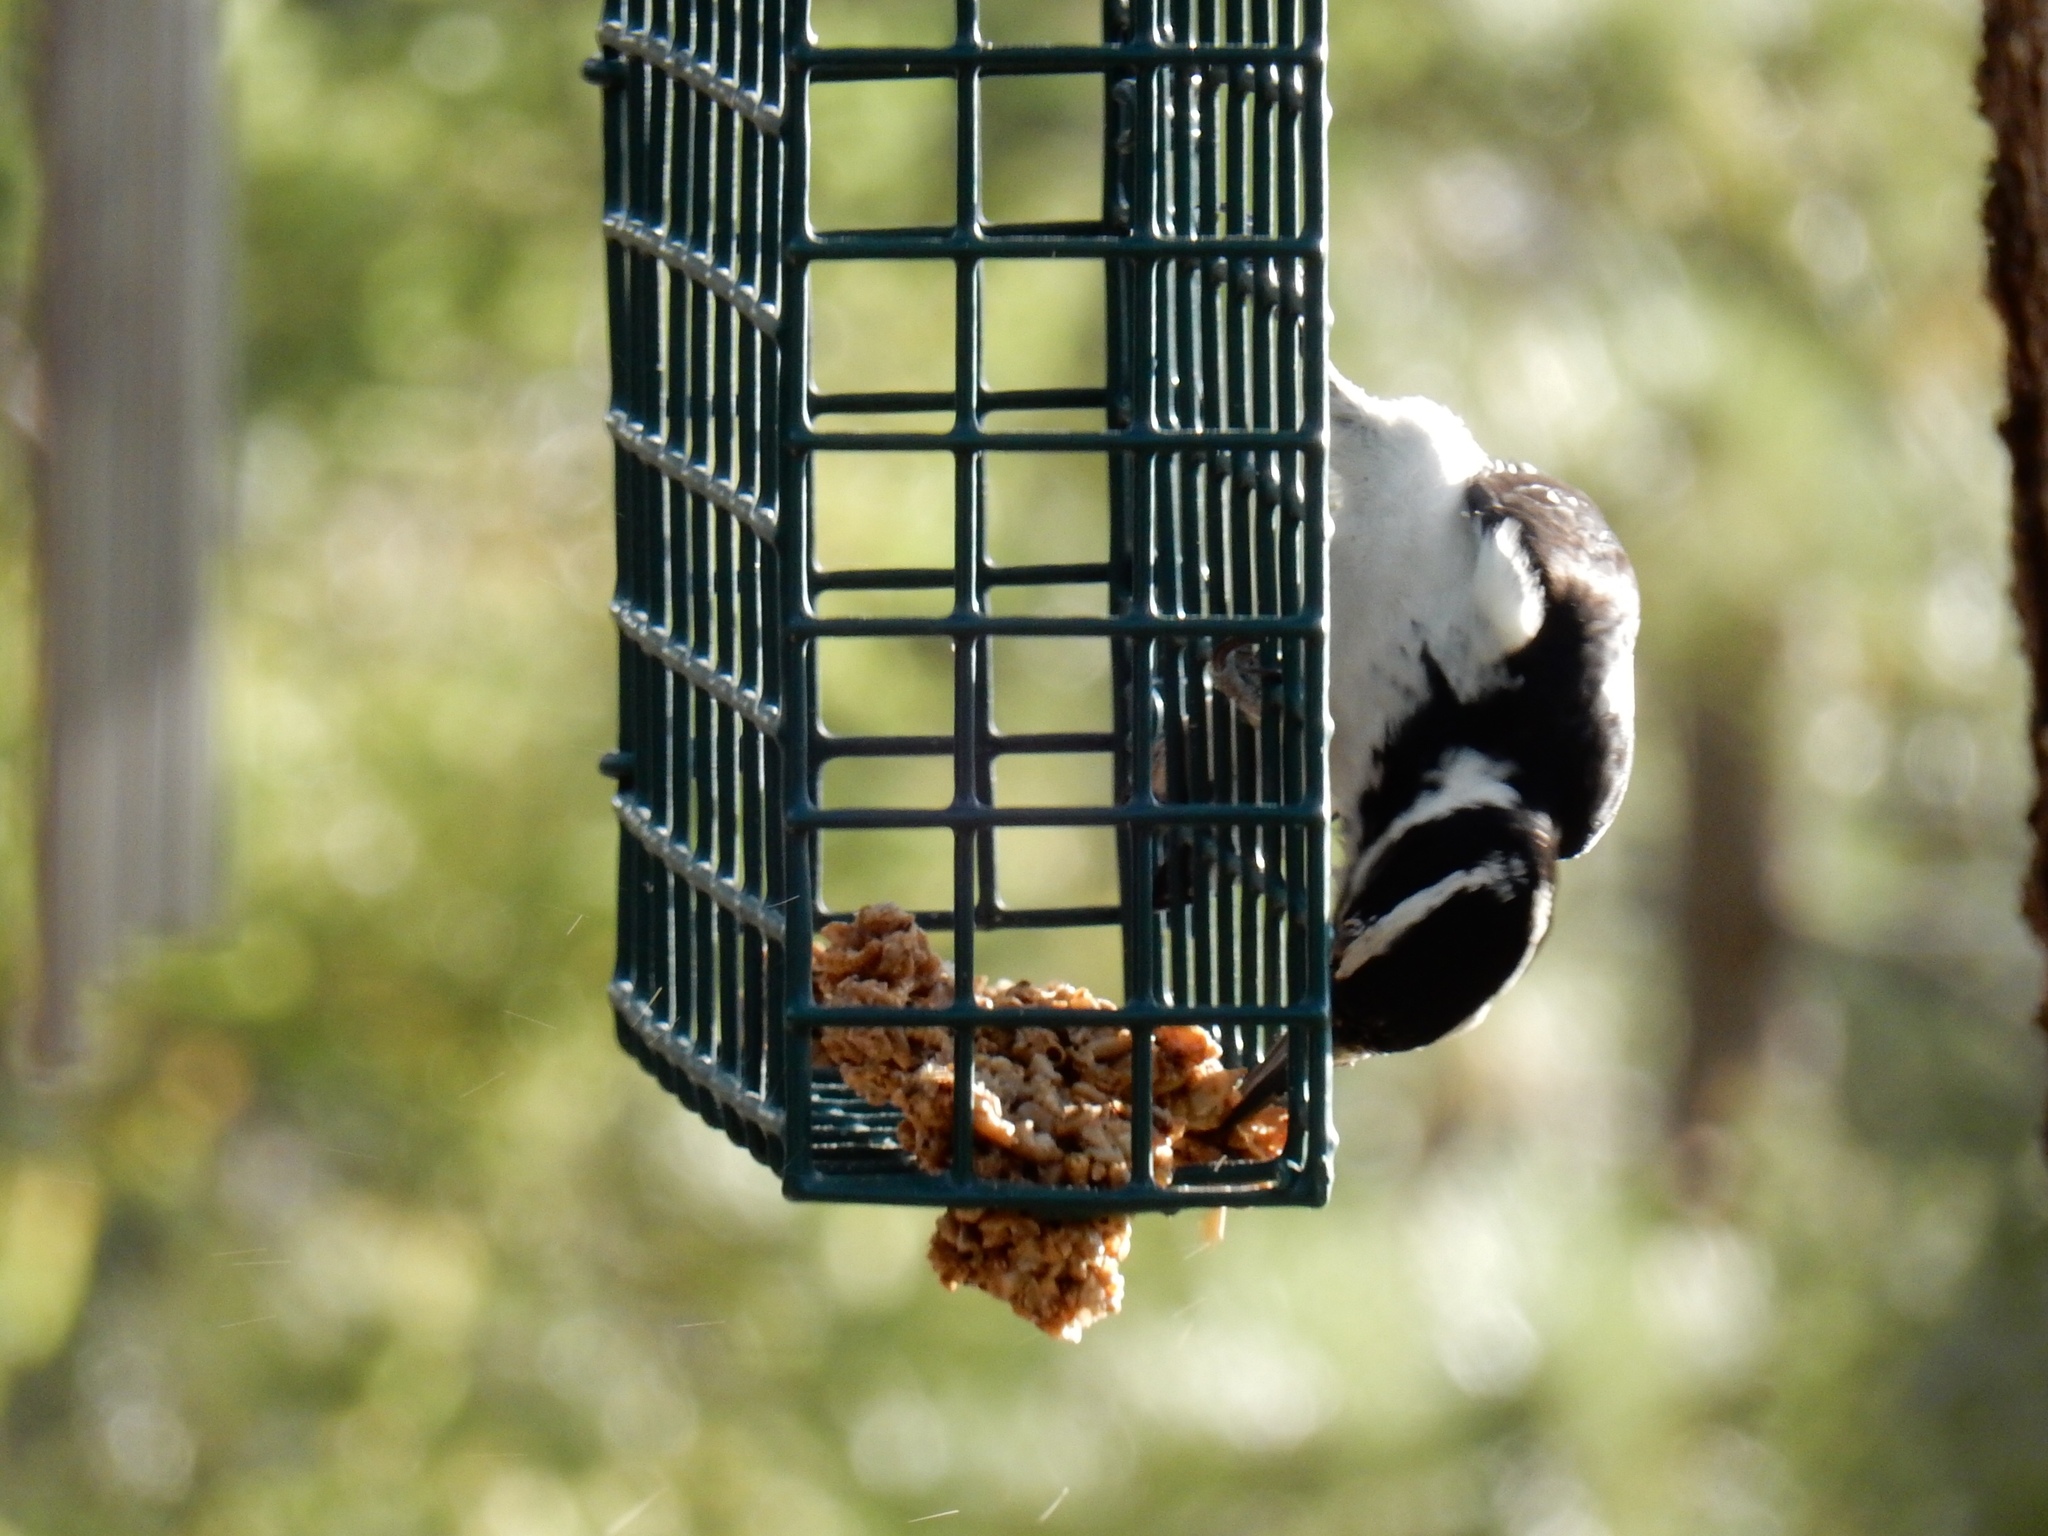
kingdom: Animalia
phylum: Chordata
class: Aves
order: Piciformes
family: Picidae
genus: Leuconotopicus
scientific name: Leuconotopicus villosus
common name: Hairy woodpecker
